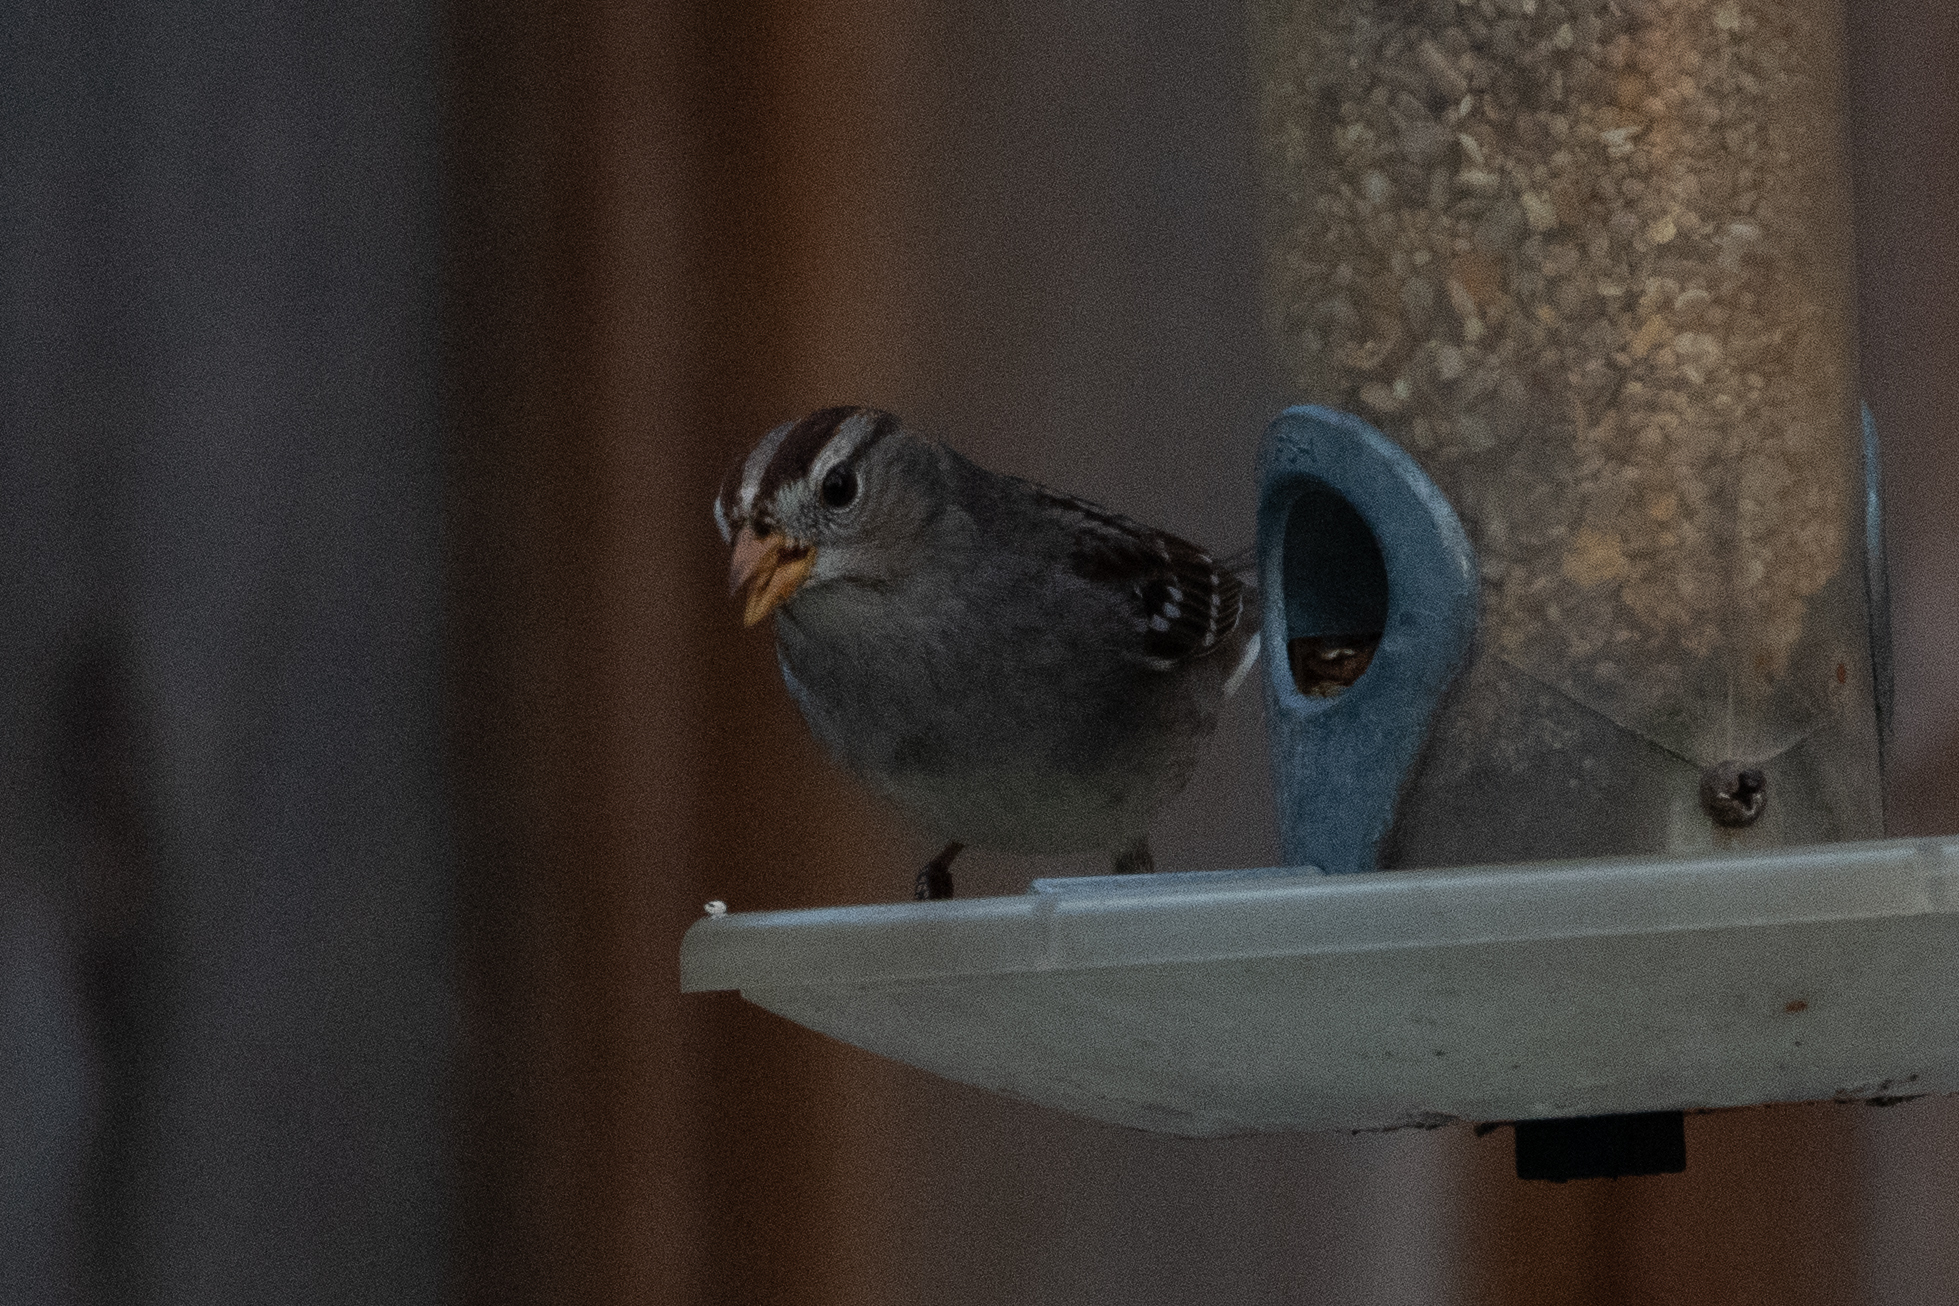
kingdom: Animalia
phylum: Chordata
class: Aves
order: Passeriformes
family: Passerellidae
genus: Zonotrichia
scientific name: Zonotrichia leucophrys
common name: White-crowned sparrow
